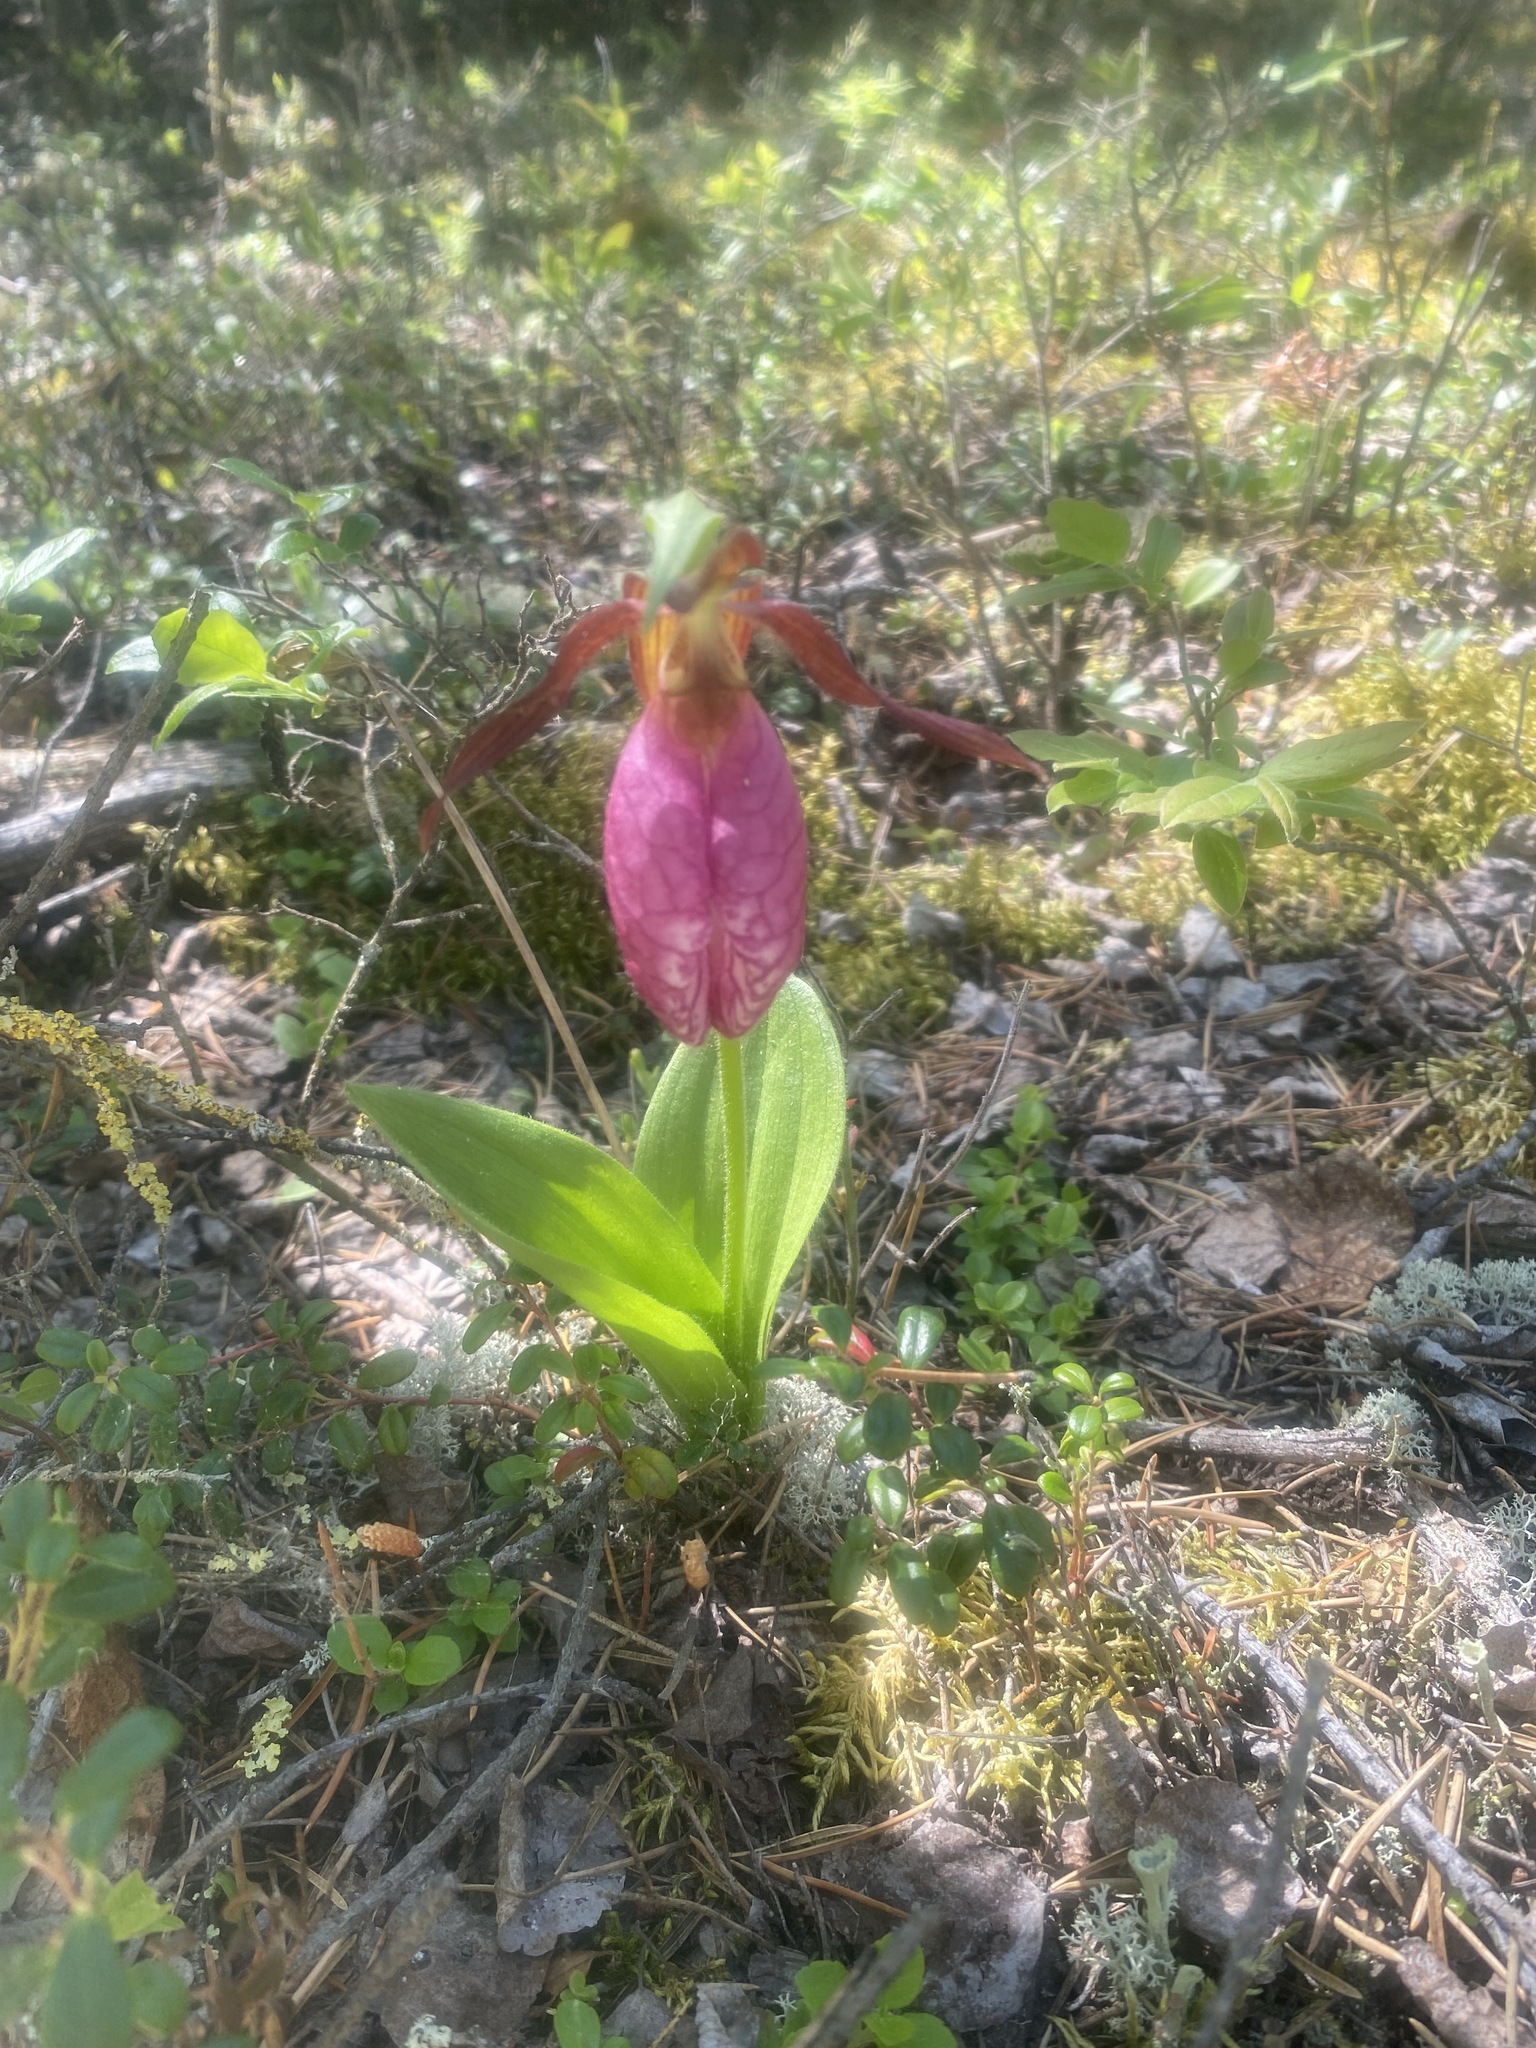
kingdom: Plantae
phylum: Tracheophyta
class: Liliopsida
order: Asparagales
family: Orchidaceae
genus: Cypripedium
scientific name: Cypripedium acaule
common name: Pink lady's-slipper
